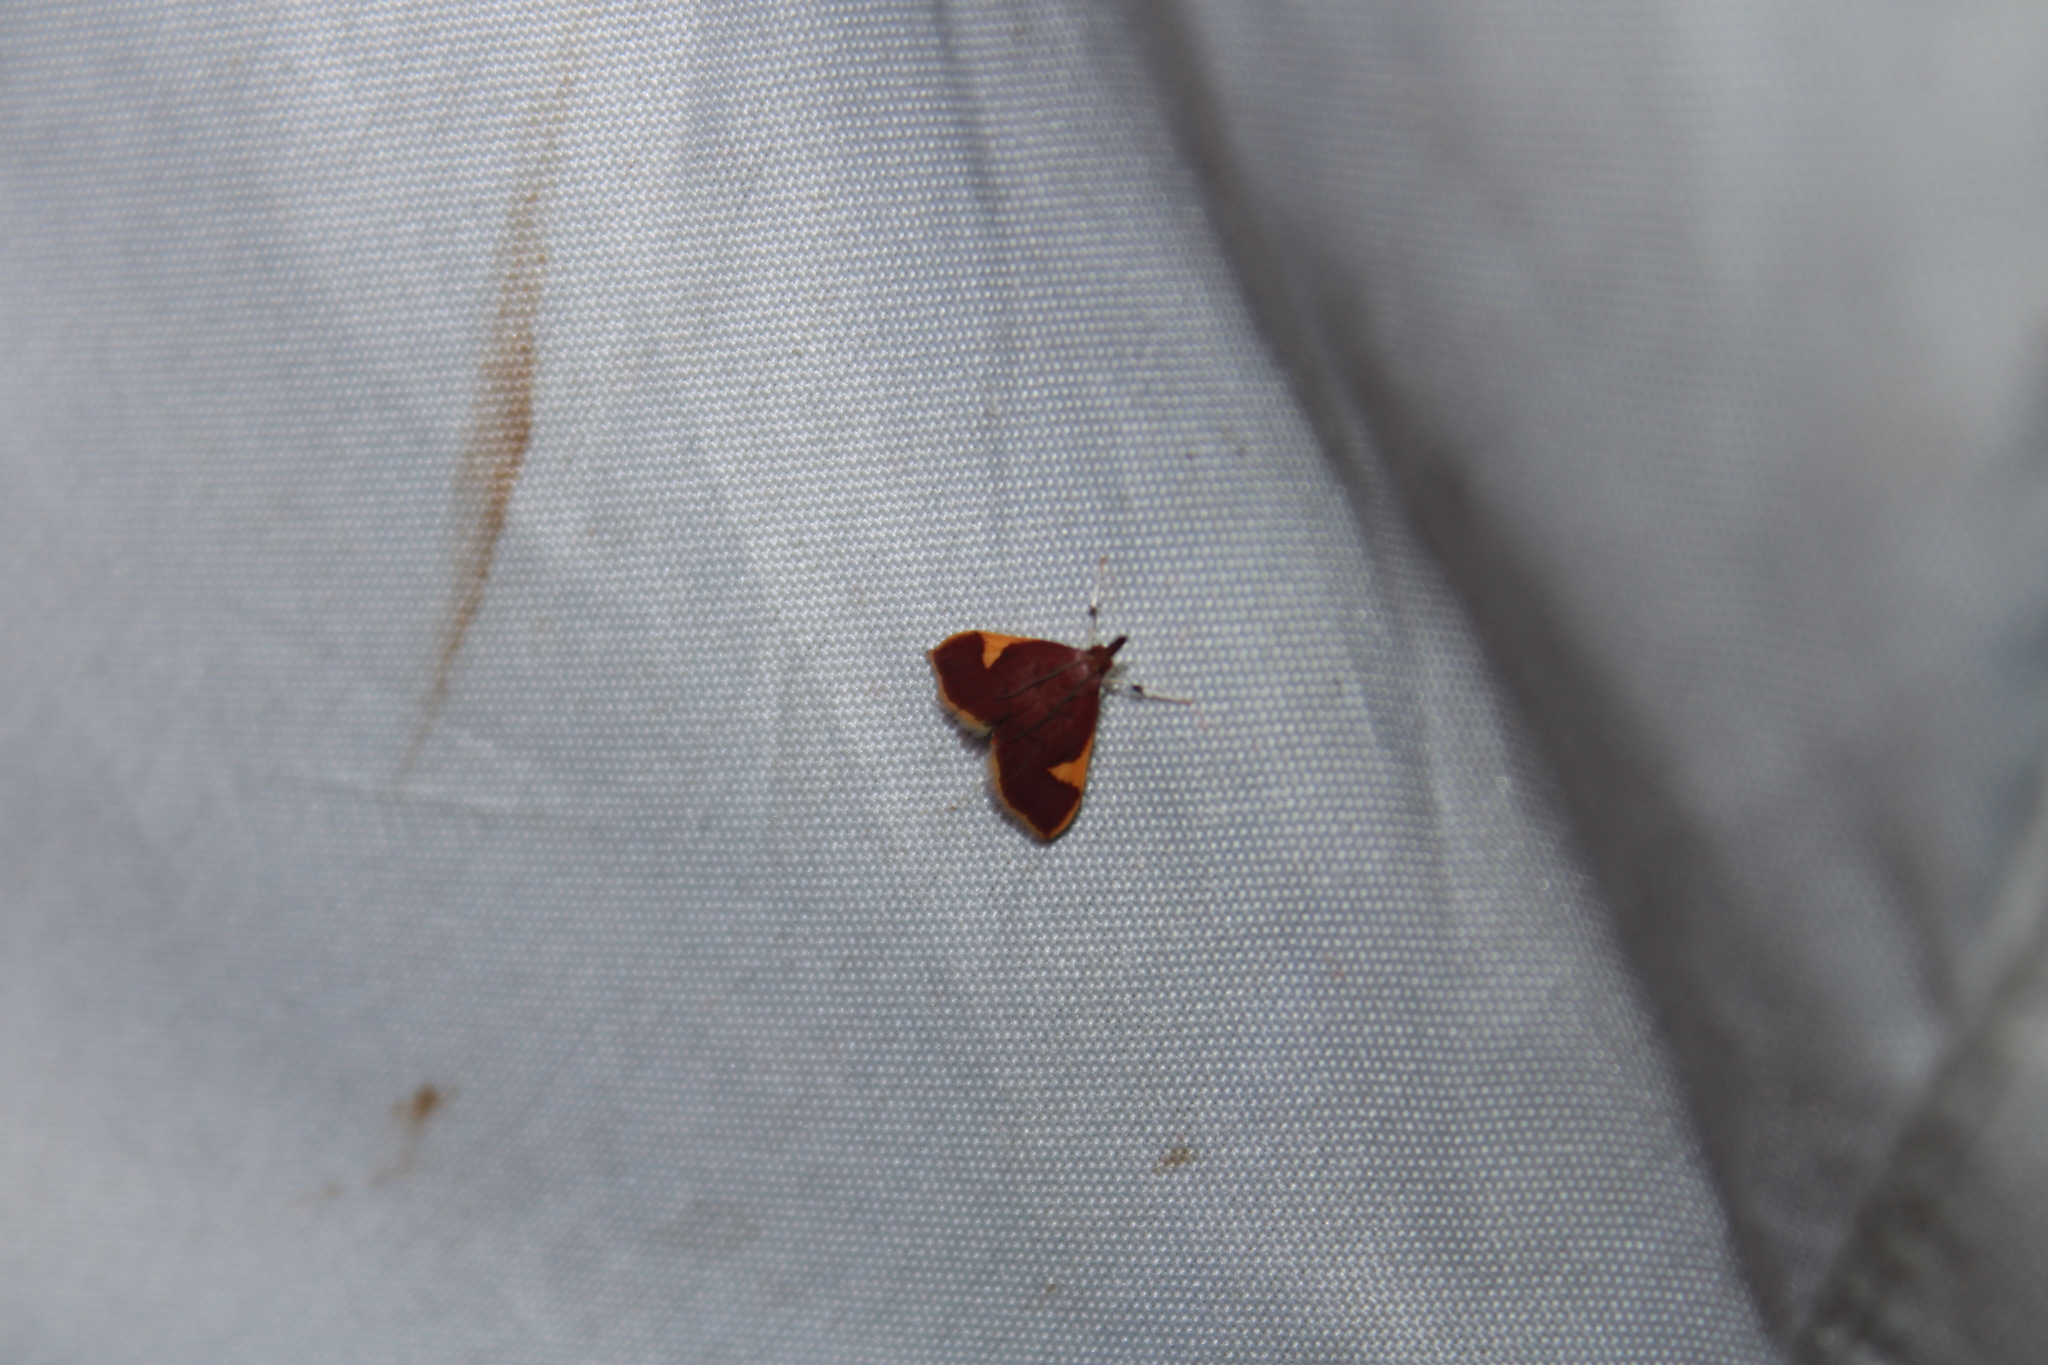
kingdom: Animalia
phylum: Arthropoda
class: Insecta
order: Lepidoptera
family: Crambidae
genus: Deuterophysa
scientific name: Deuterophysa fernaldi
